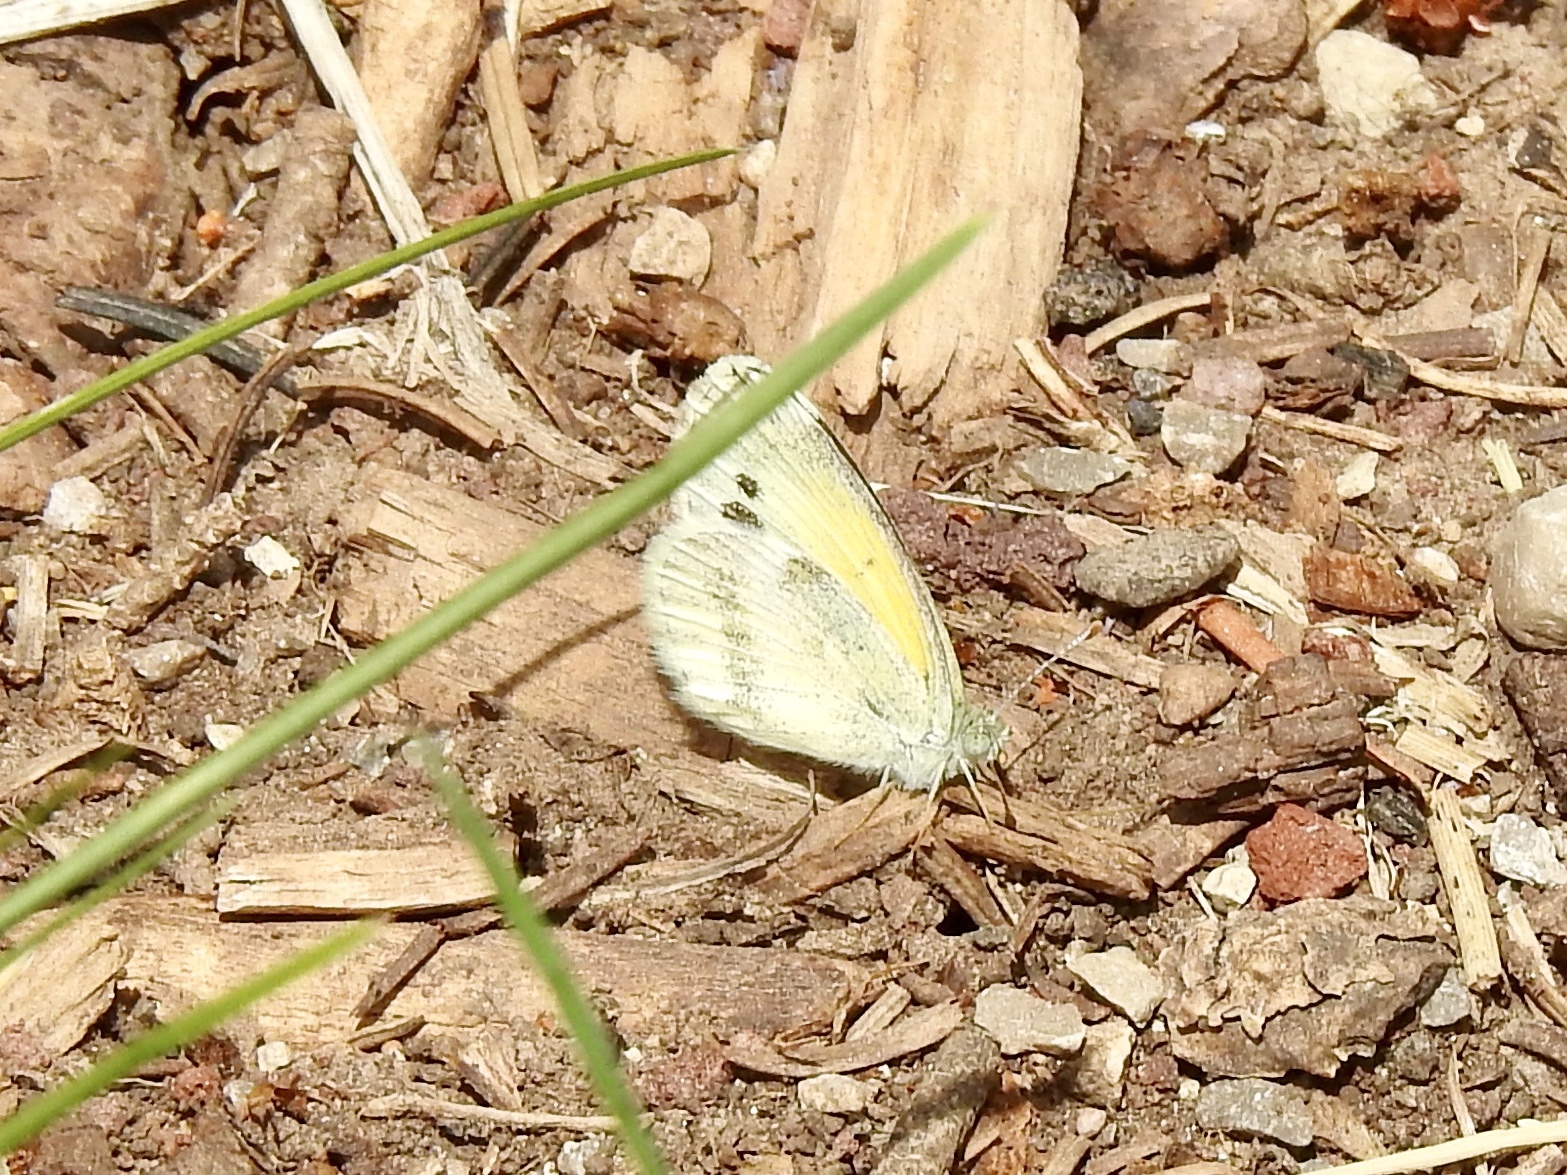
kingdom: Animalia
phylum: Arthropoda
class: Insecta
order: Lepidoptera
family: Pieridae
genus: Nathalis
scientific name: Nathalis iole
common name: Dainty sulphur
